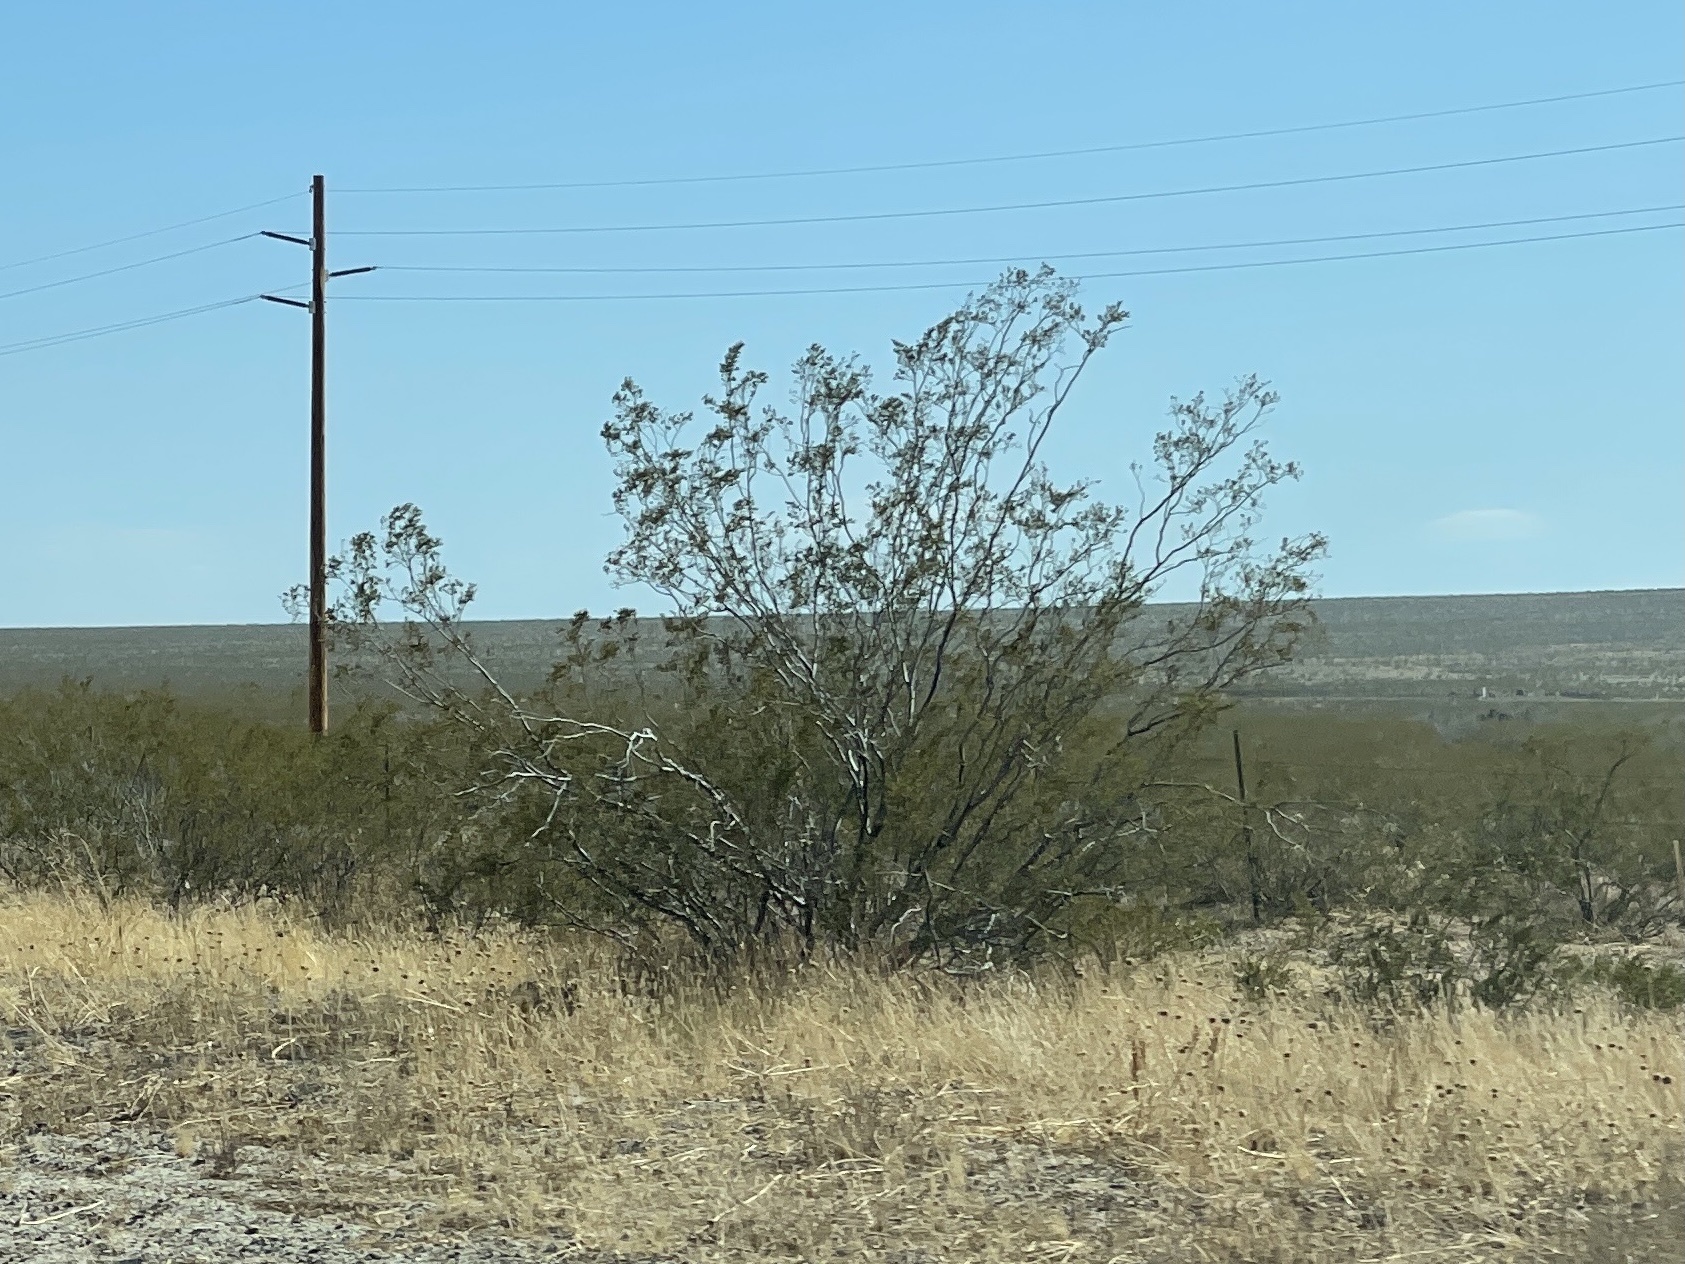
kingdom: Plantae
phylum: Tracheophyta
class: Magnoliopsida
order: Zygophyllales
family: Zygophyllaceae
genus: Larrea
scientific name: Larrea tridentata
